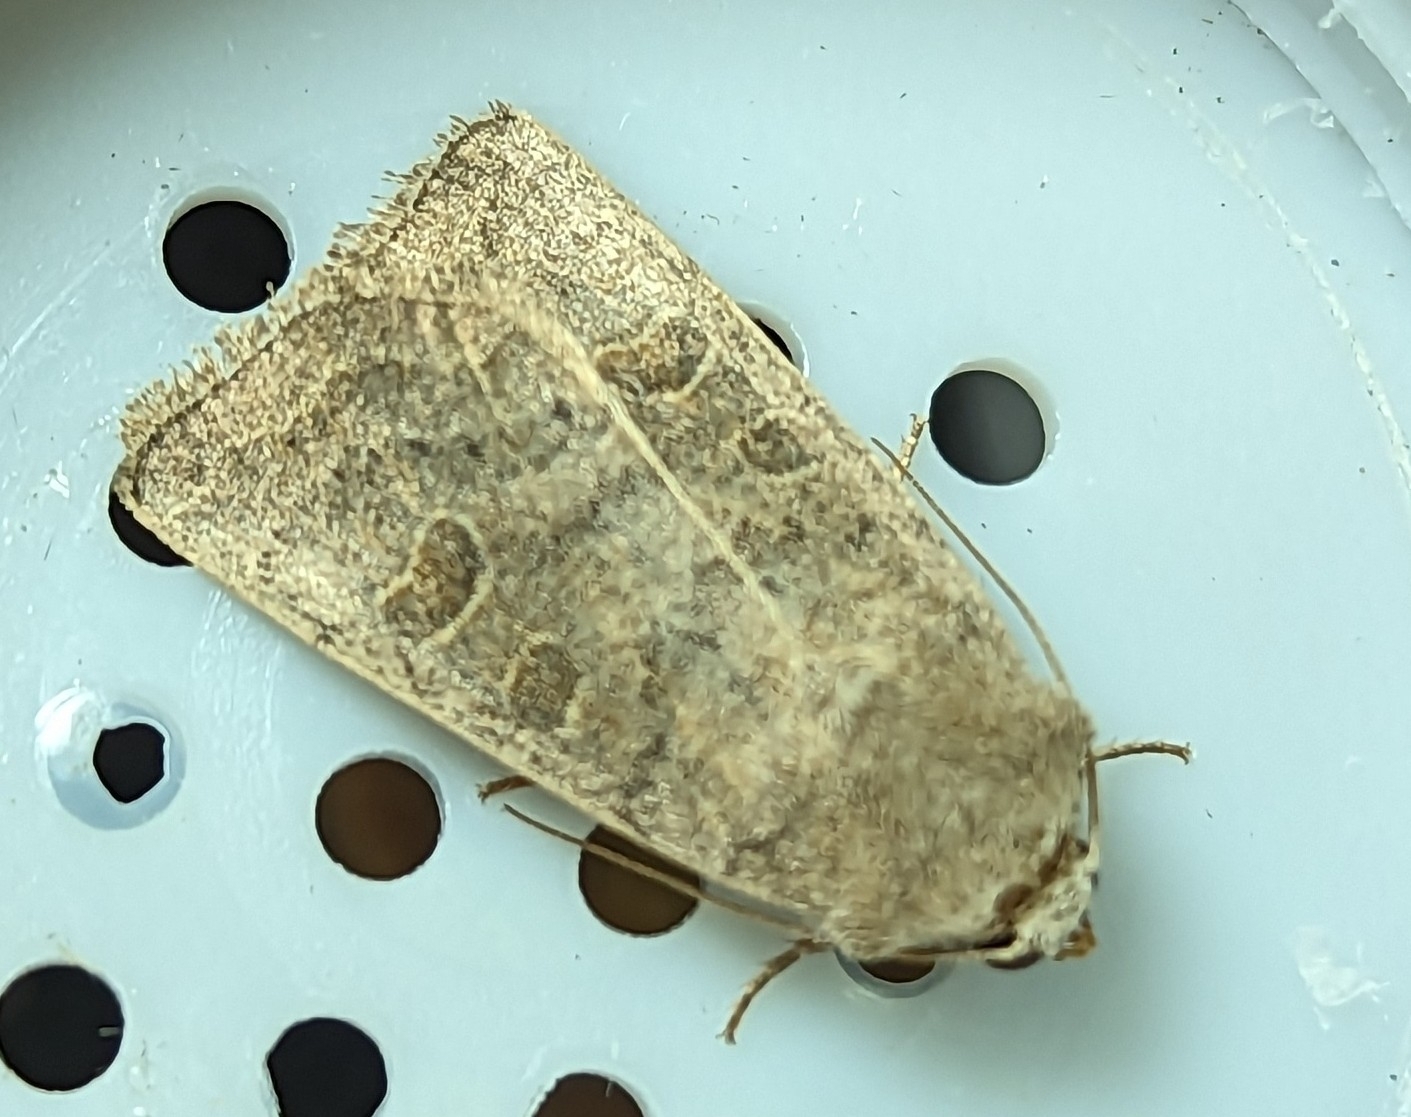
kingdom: Animalia
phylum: Arthropoda
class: Insecta
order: Lepidoptera
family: Noctuidae
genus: Hoplodrina
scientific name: Hoplodrina ambigua
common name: Vine's rustic
